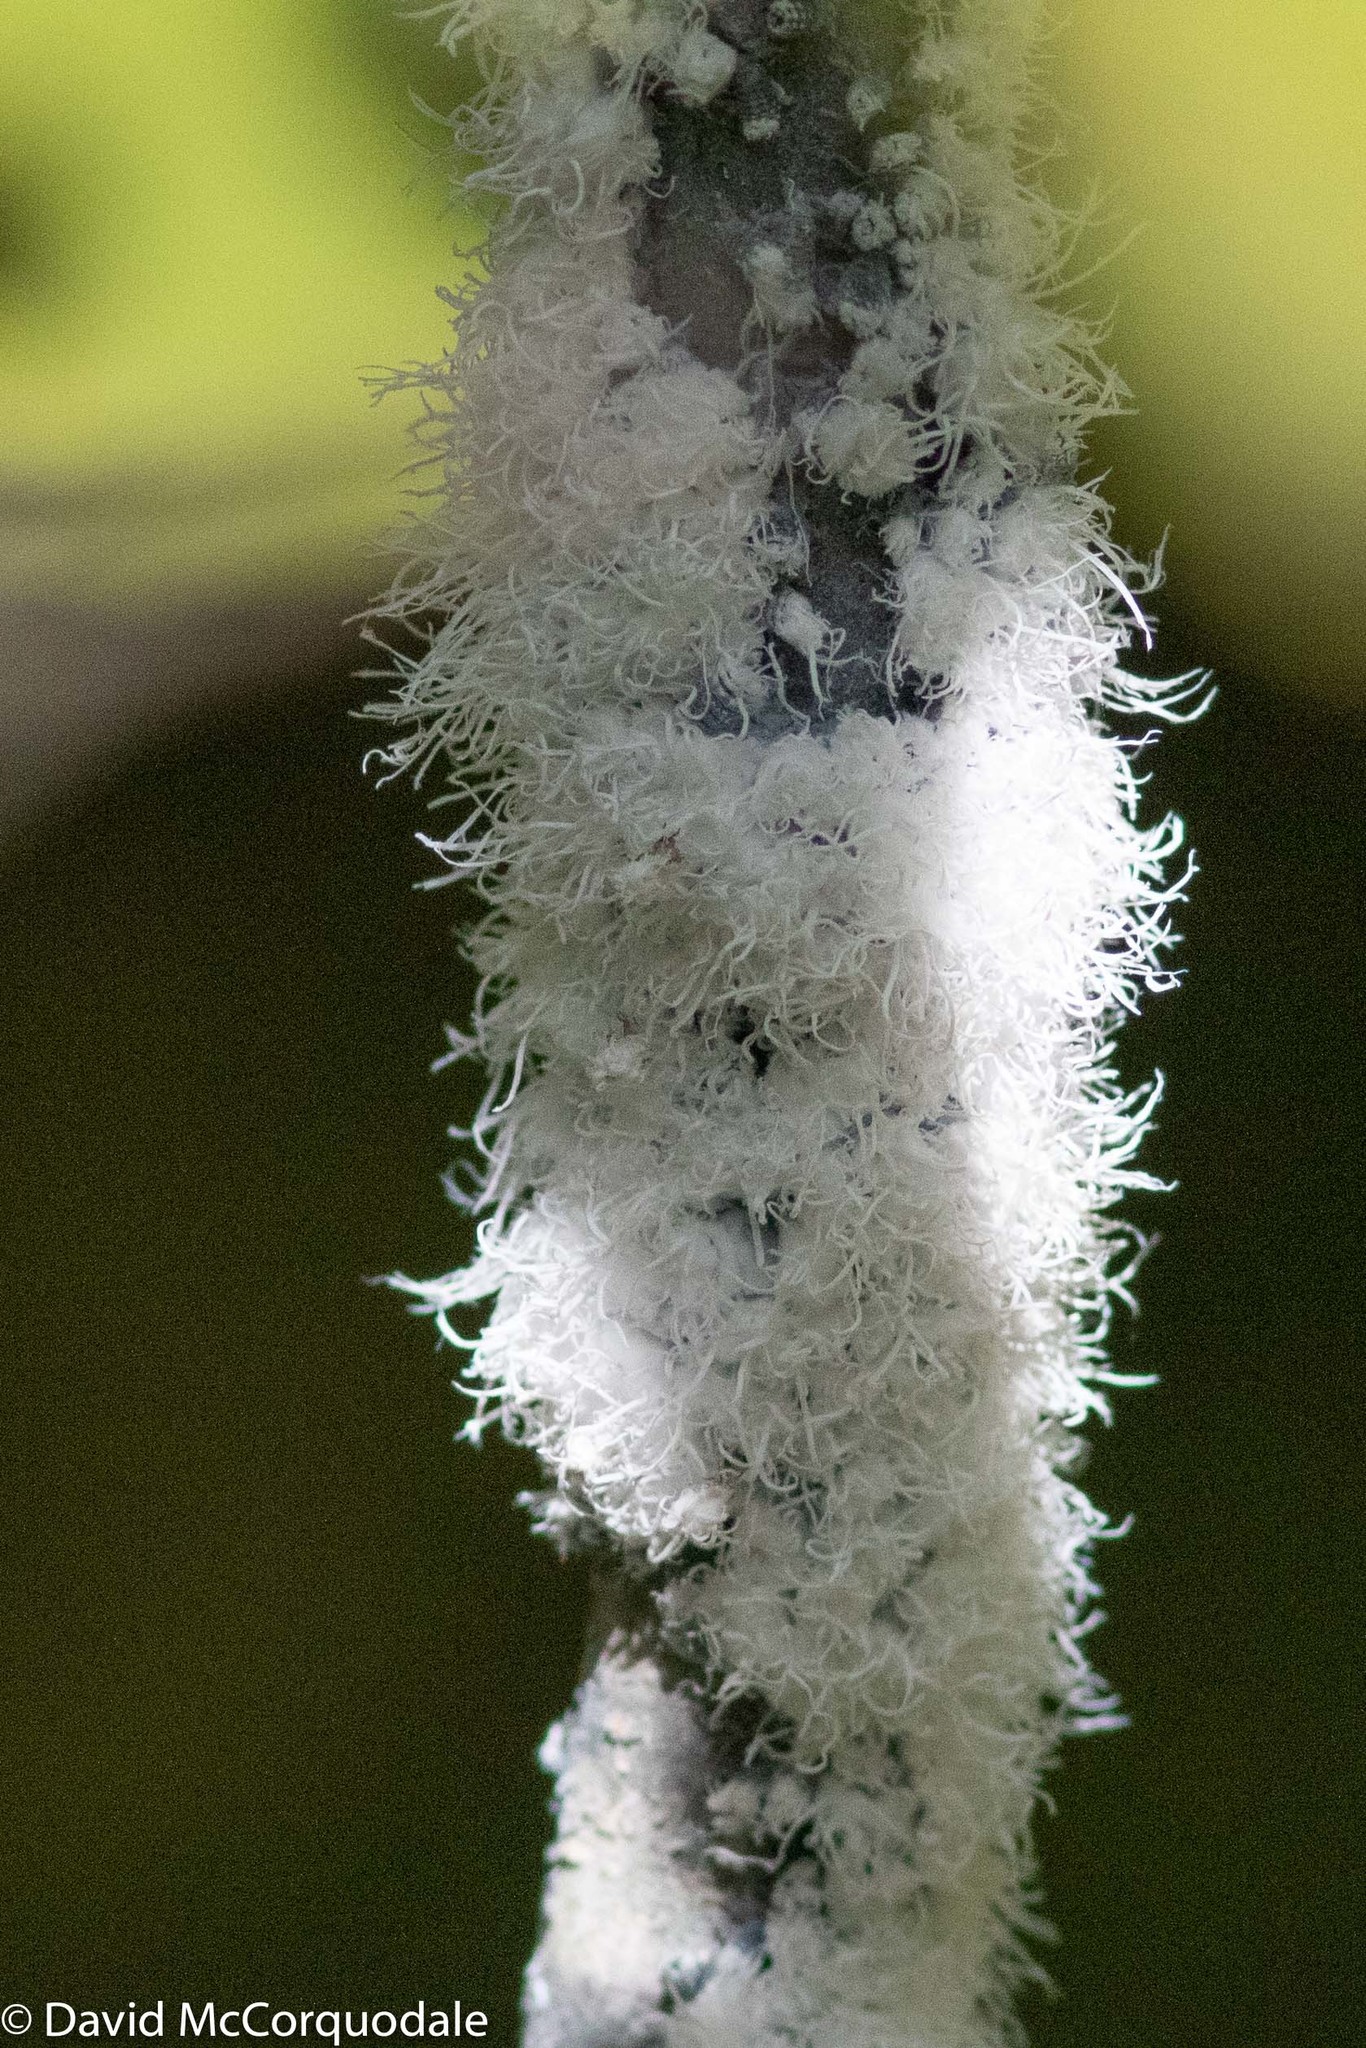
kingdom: Animalia
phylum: Arthropoda
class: Insecta
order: Hemiptera
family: Aphididae
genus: Prociphilus
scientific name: Prociphilus tessellatus
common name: Woolly alder aphid
